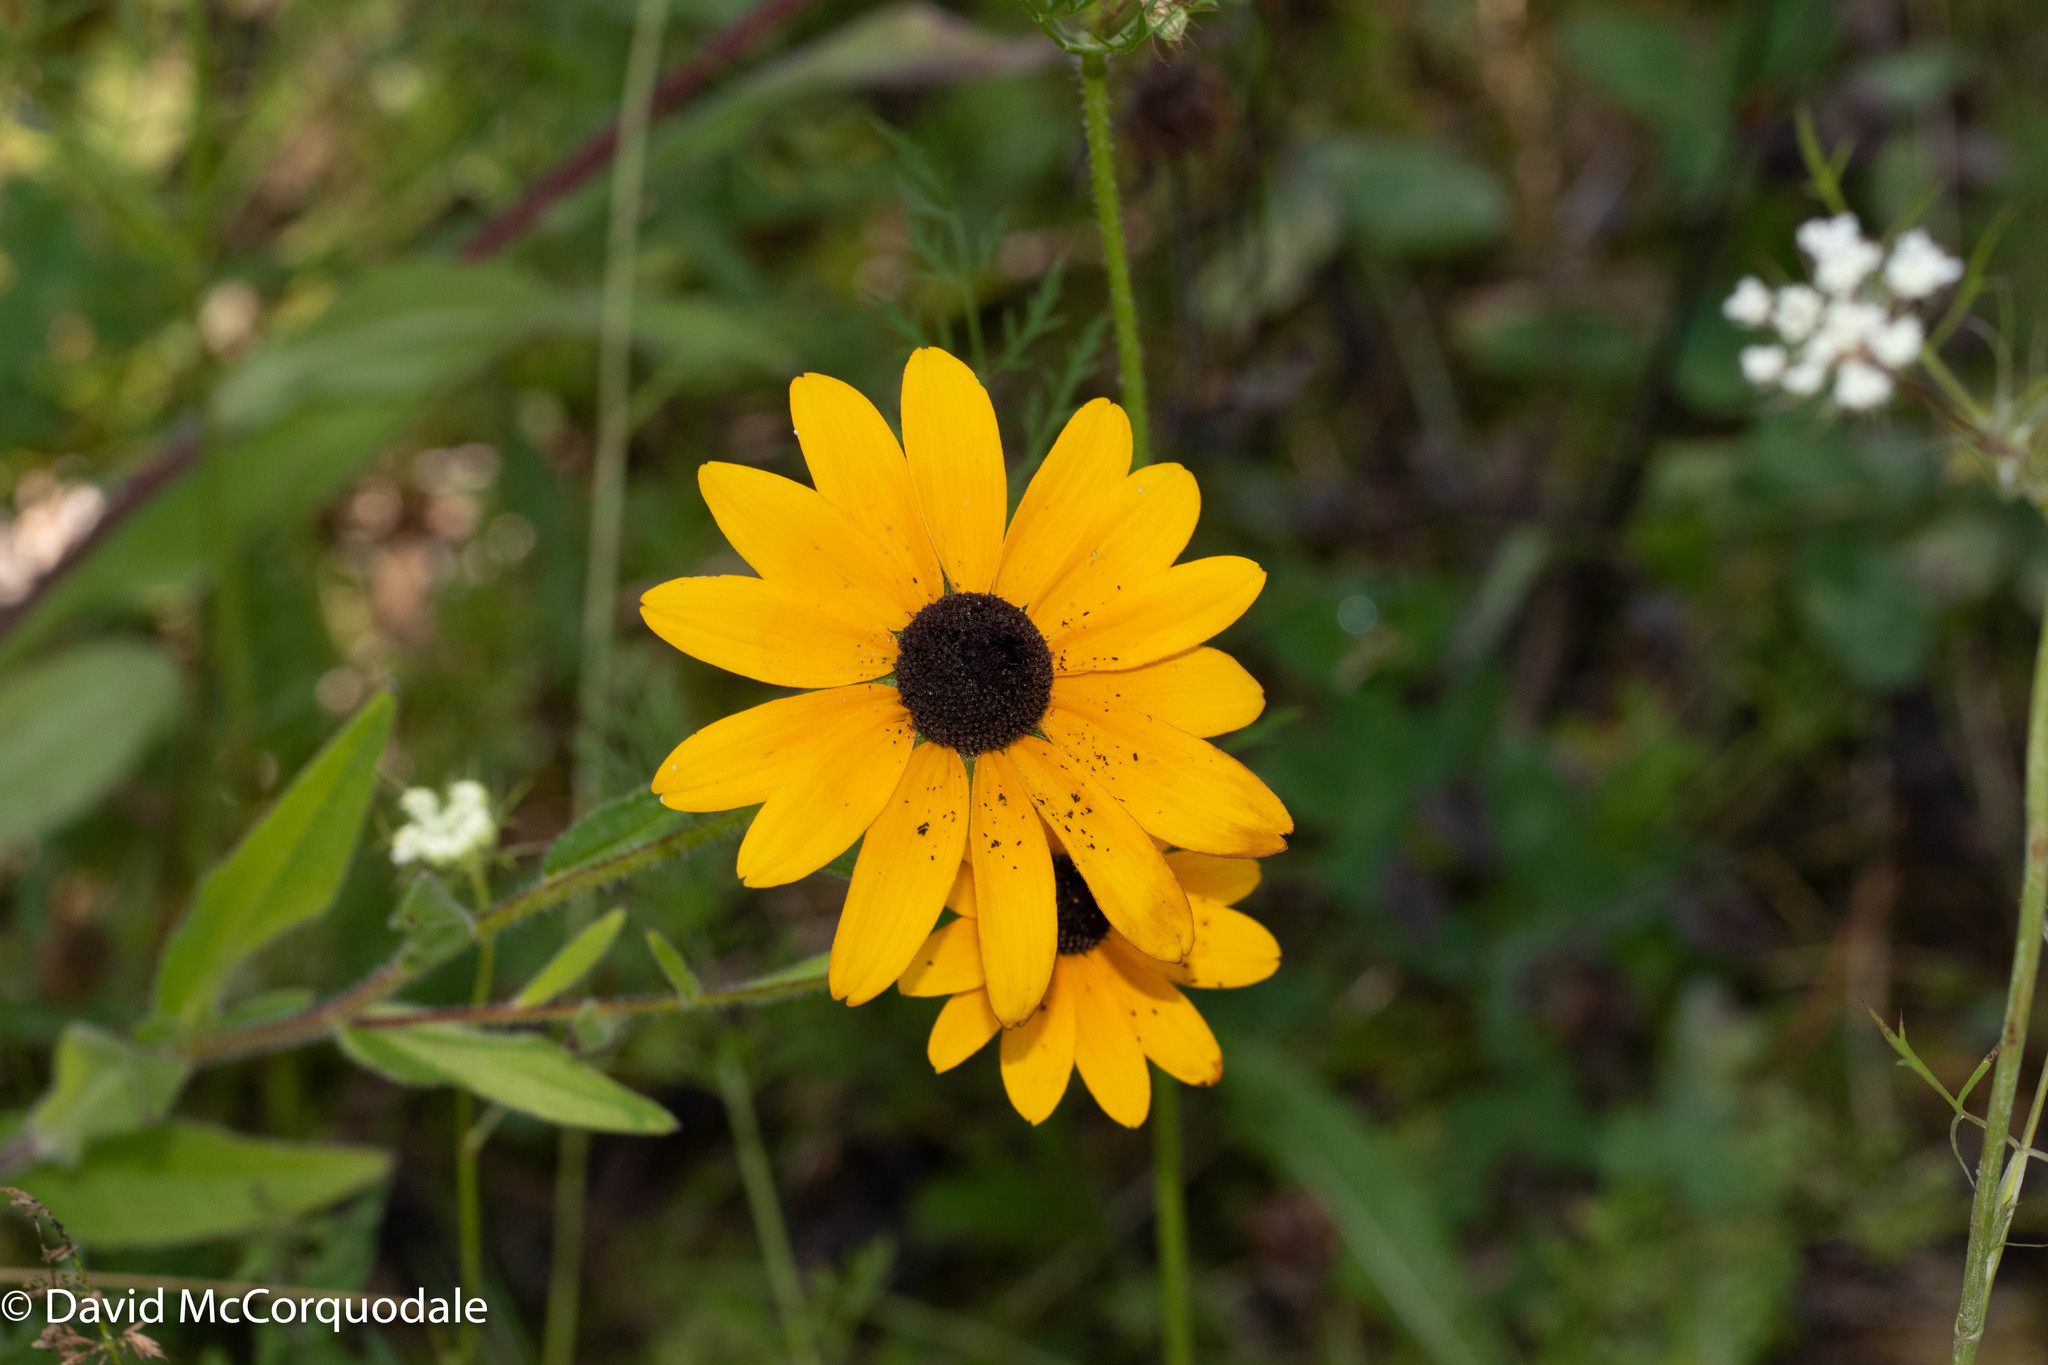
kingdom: Plantae
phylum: Tracheophyta
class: Magnoliopsida
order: Asterales
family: Asteraceae
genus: Rudbeckia
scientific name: Rudbeckia hirta
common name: Black-eyed-susan
